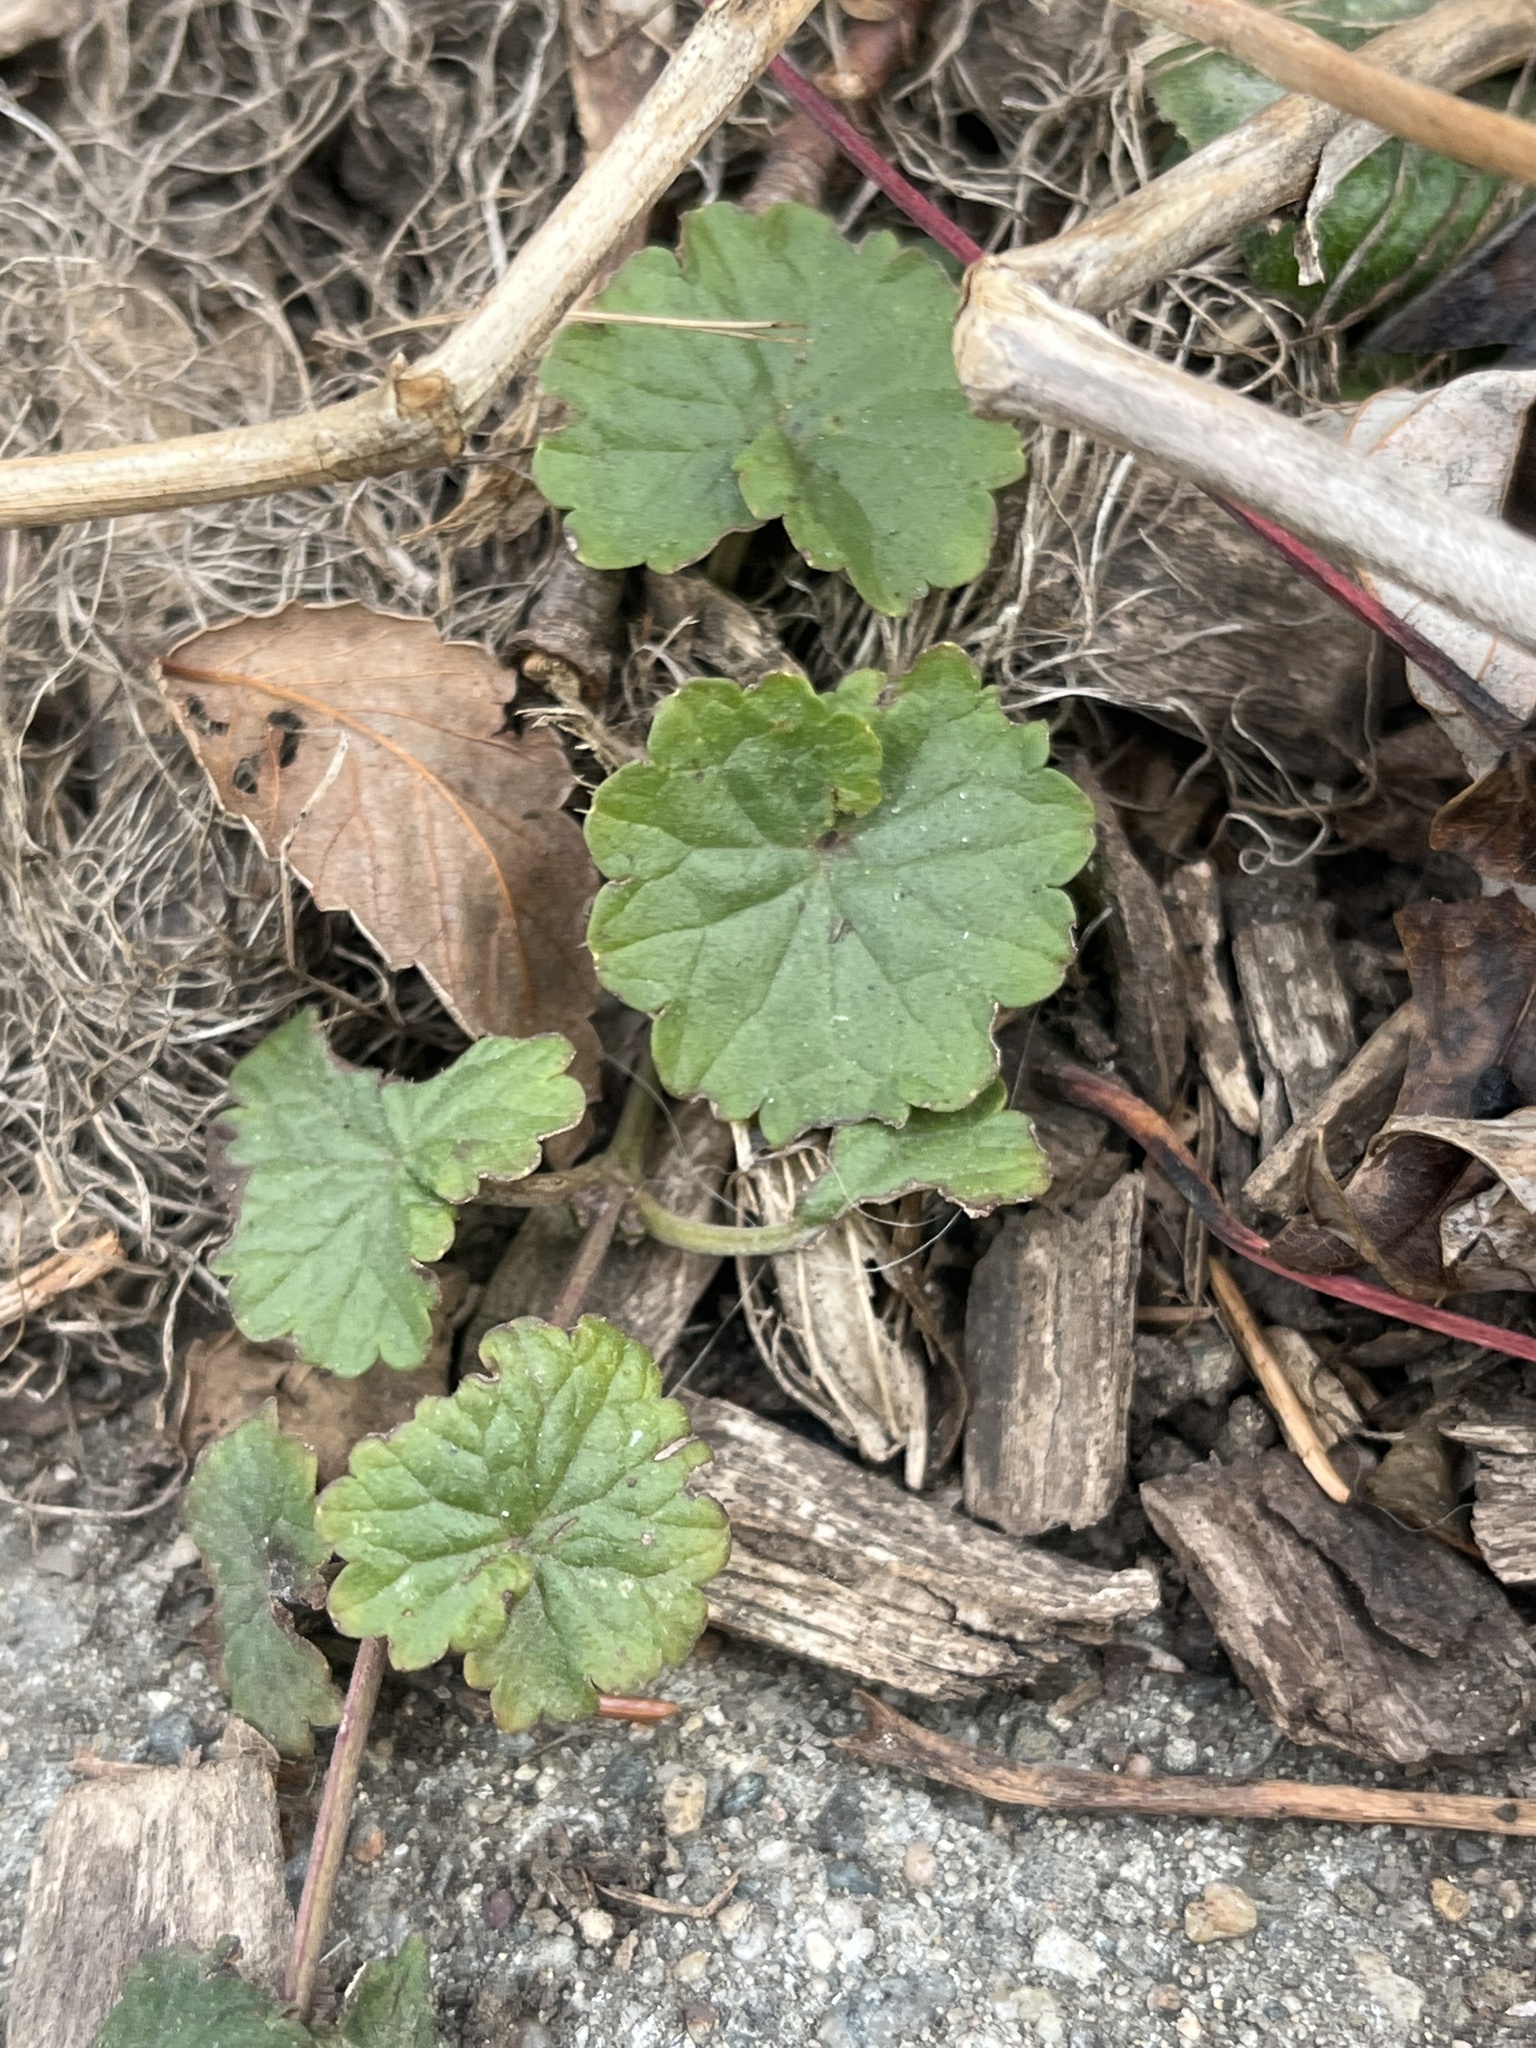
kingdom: Plantae
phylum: Tracheophyta
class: Magnoliopsida
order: Lamiales
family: Lamiaceae
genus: Glechoma
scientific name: Glechoma hederacea
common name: Ground ivy
